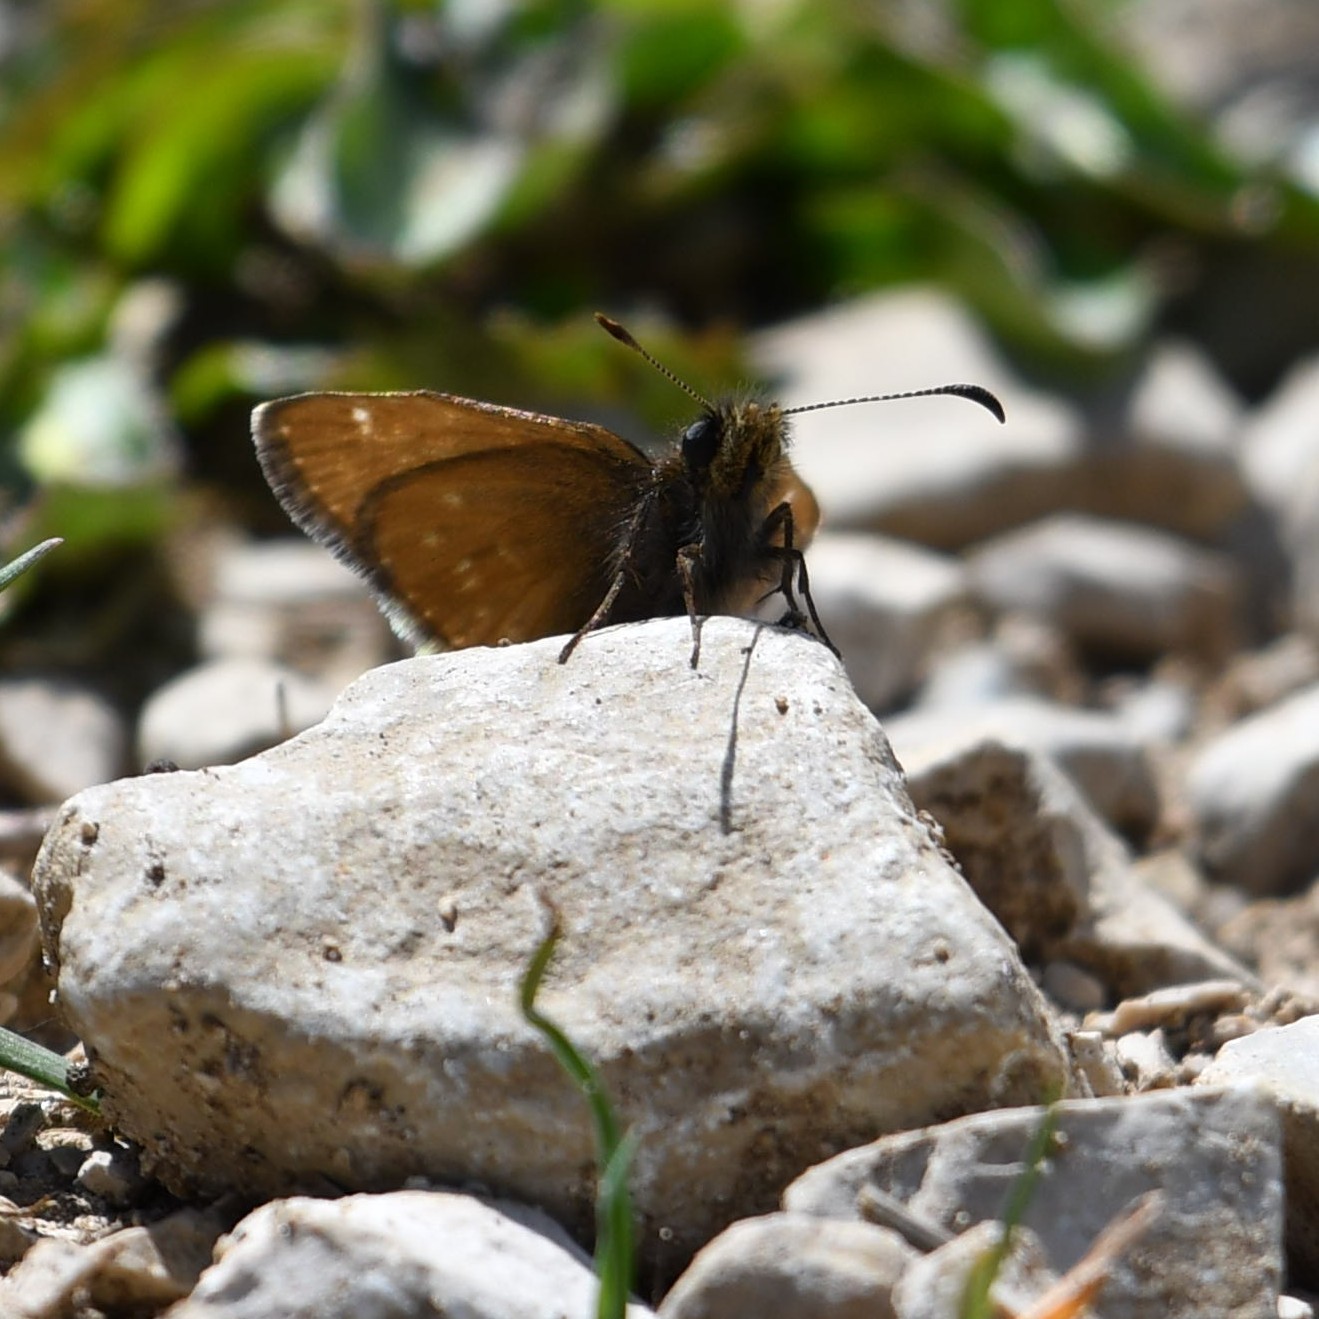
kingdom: Animalia
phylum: Arthropoda
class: Insecta
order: Lepidoptera
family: Hesperiidae
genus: Erynnis
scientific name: Erynnis tages
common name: Dingy skipper
